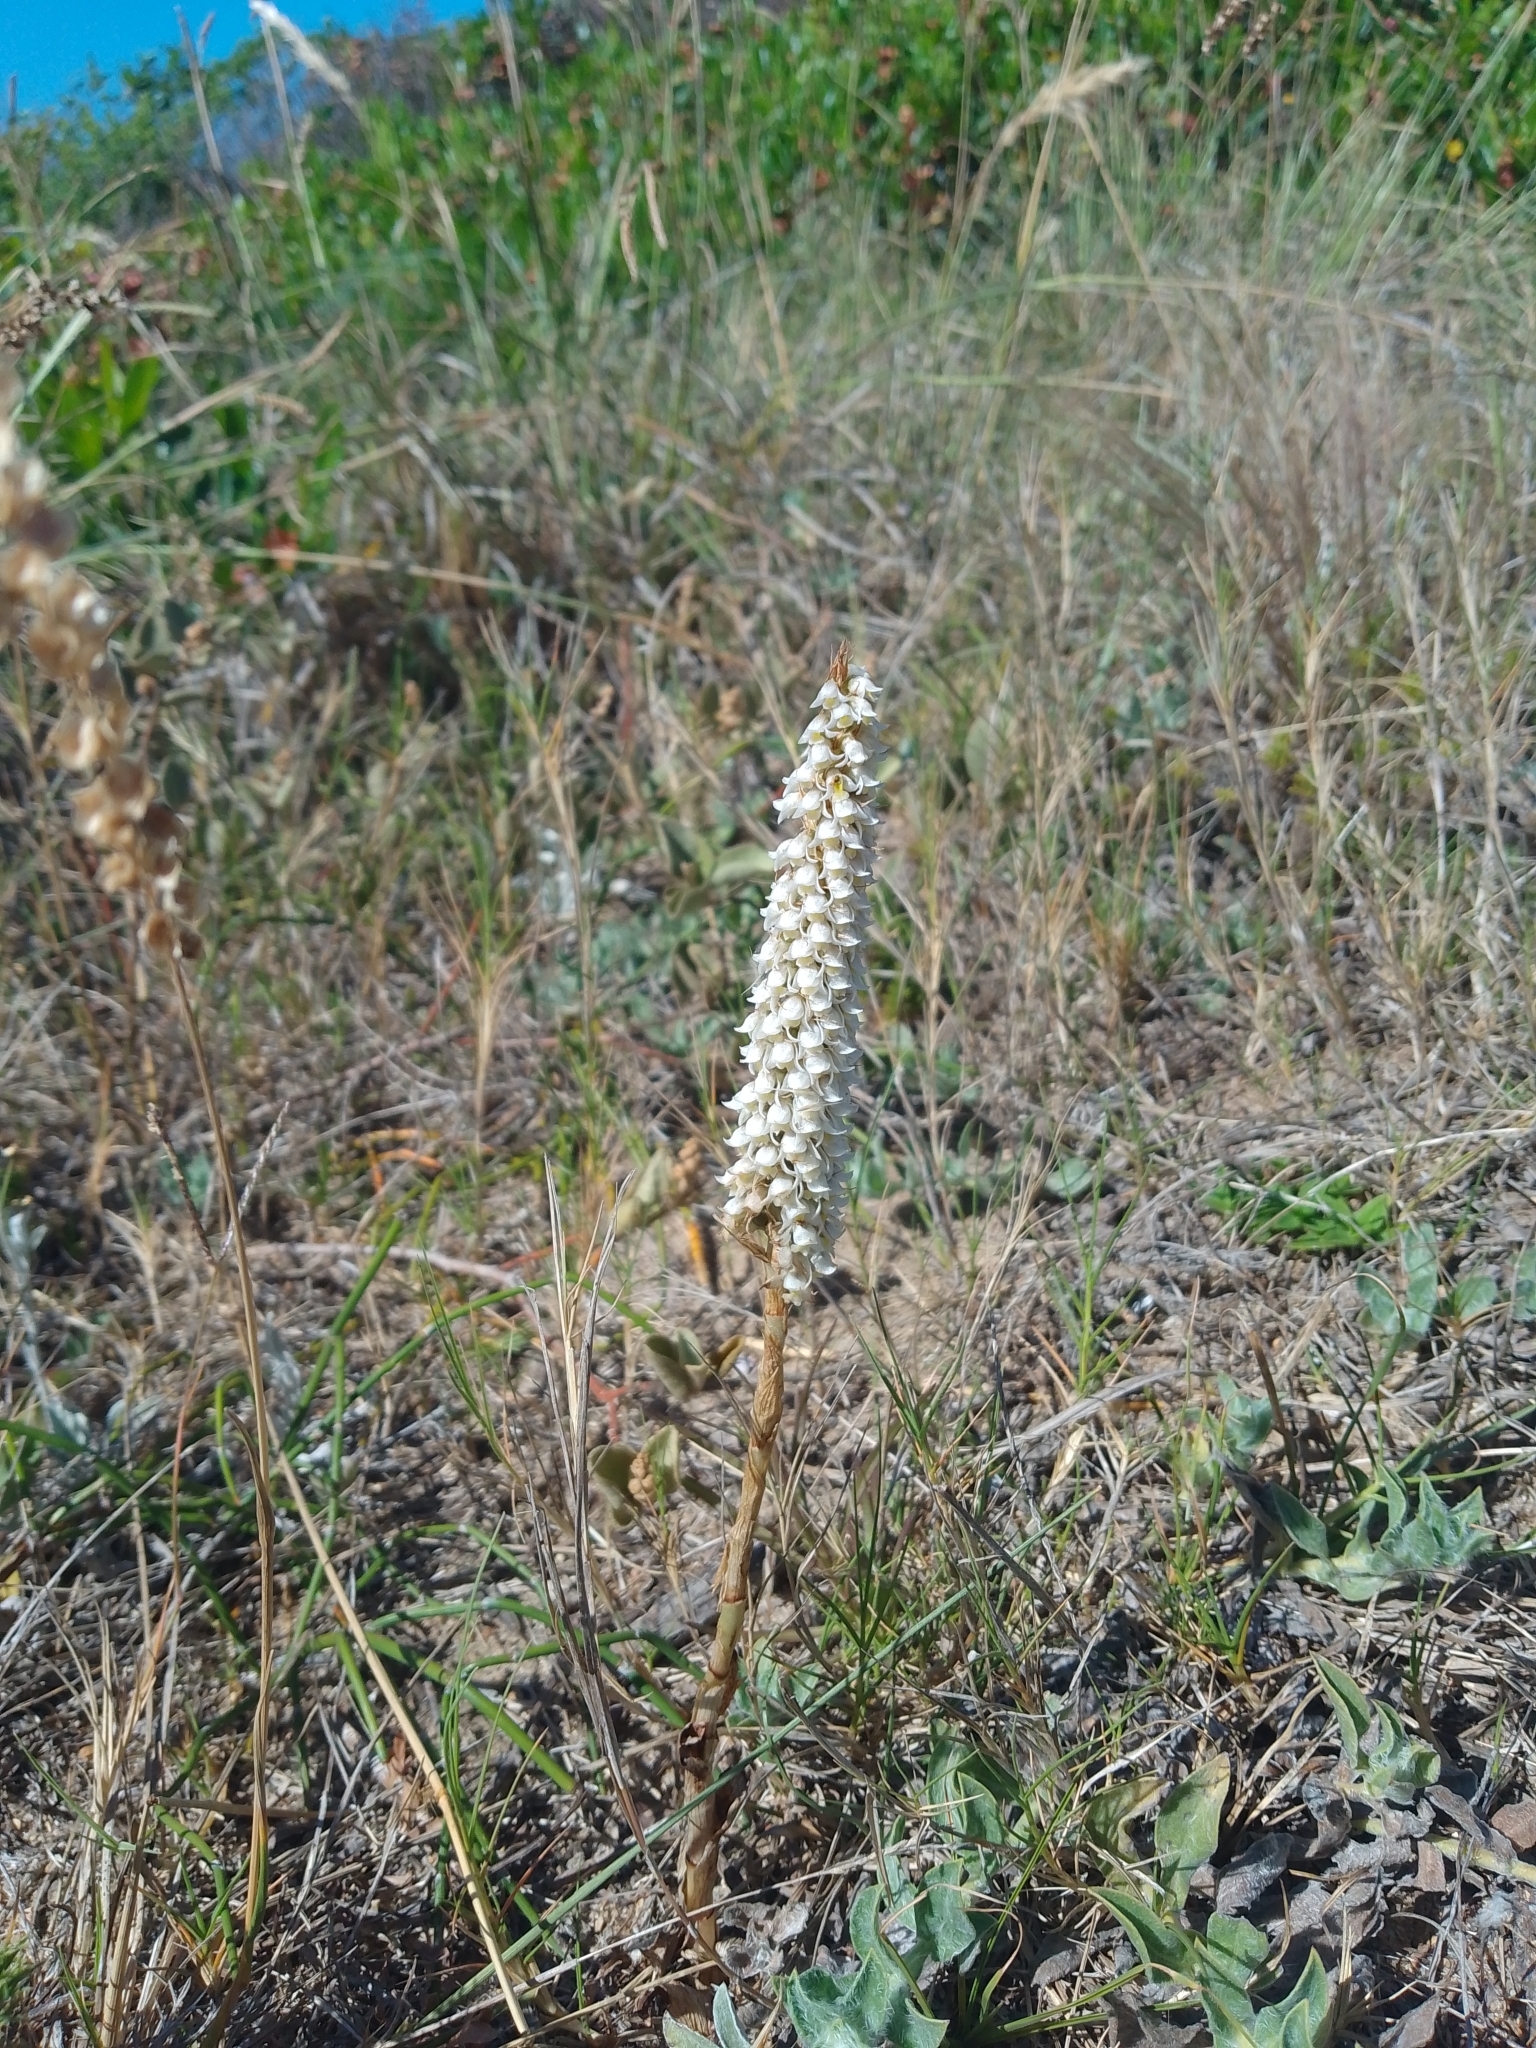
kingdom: Plantae
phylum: Tracheophyta
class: Liliopsida
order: Asparagales
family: Orchidaceae
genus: Brachystele
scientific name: Brachystele camporum
